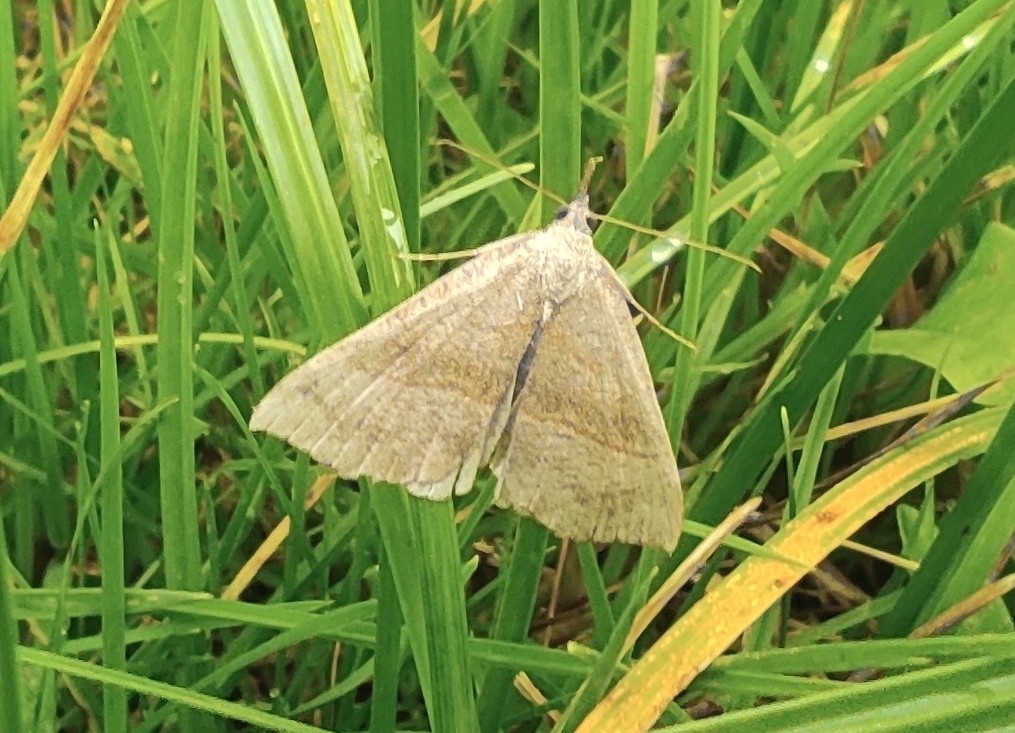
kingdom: Animalia
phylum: Arthropoda
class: Insecta
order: Lepidoptera
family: Erebidae
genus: Hypena
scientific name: Hypena proboscidalis
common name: Snout
